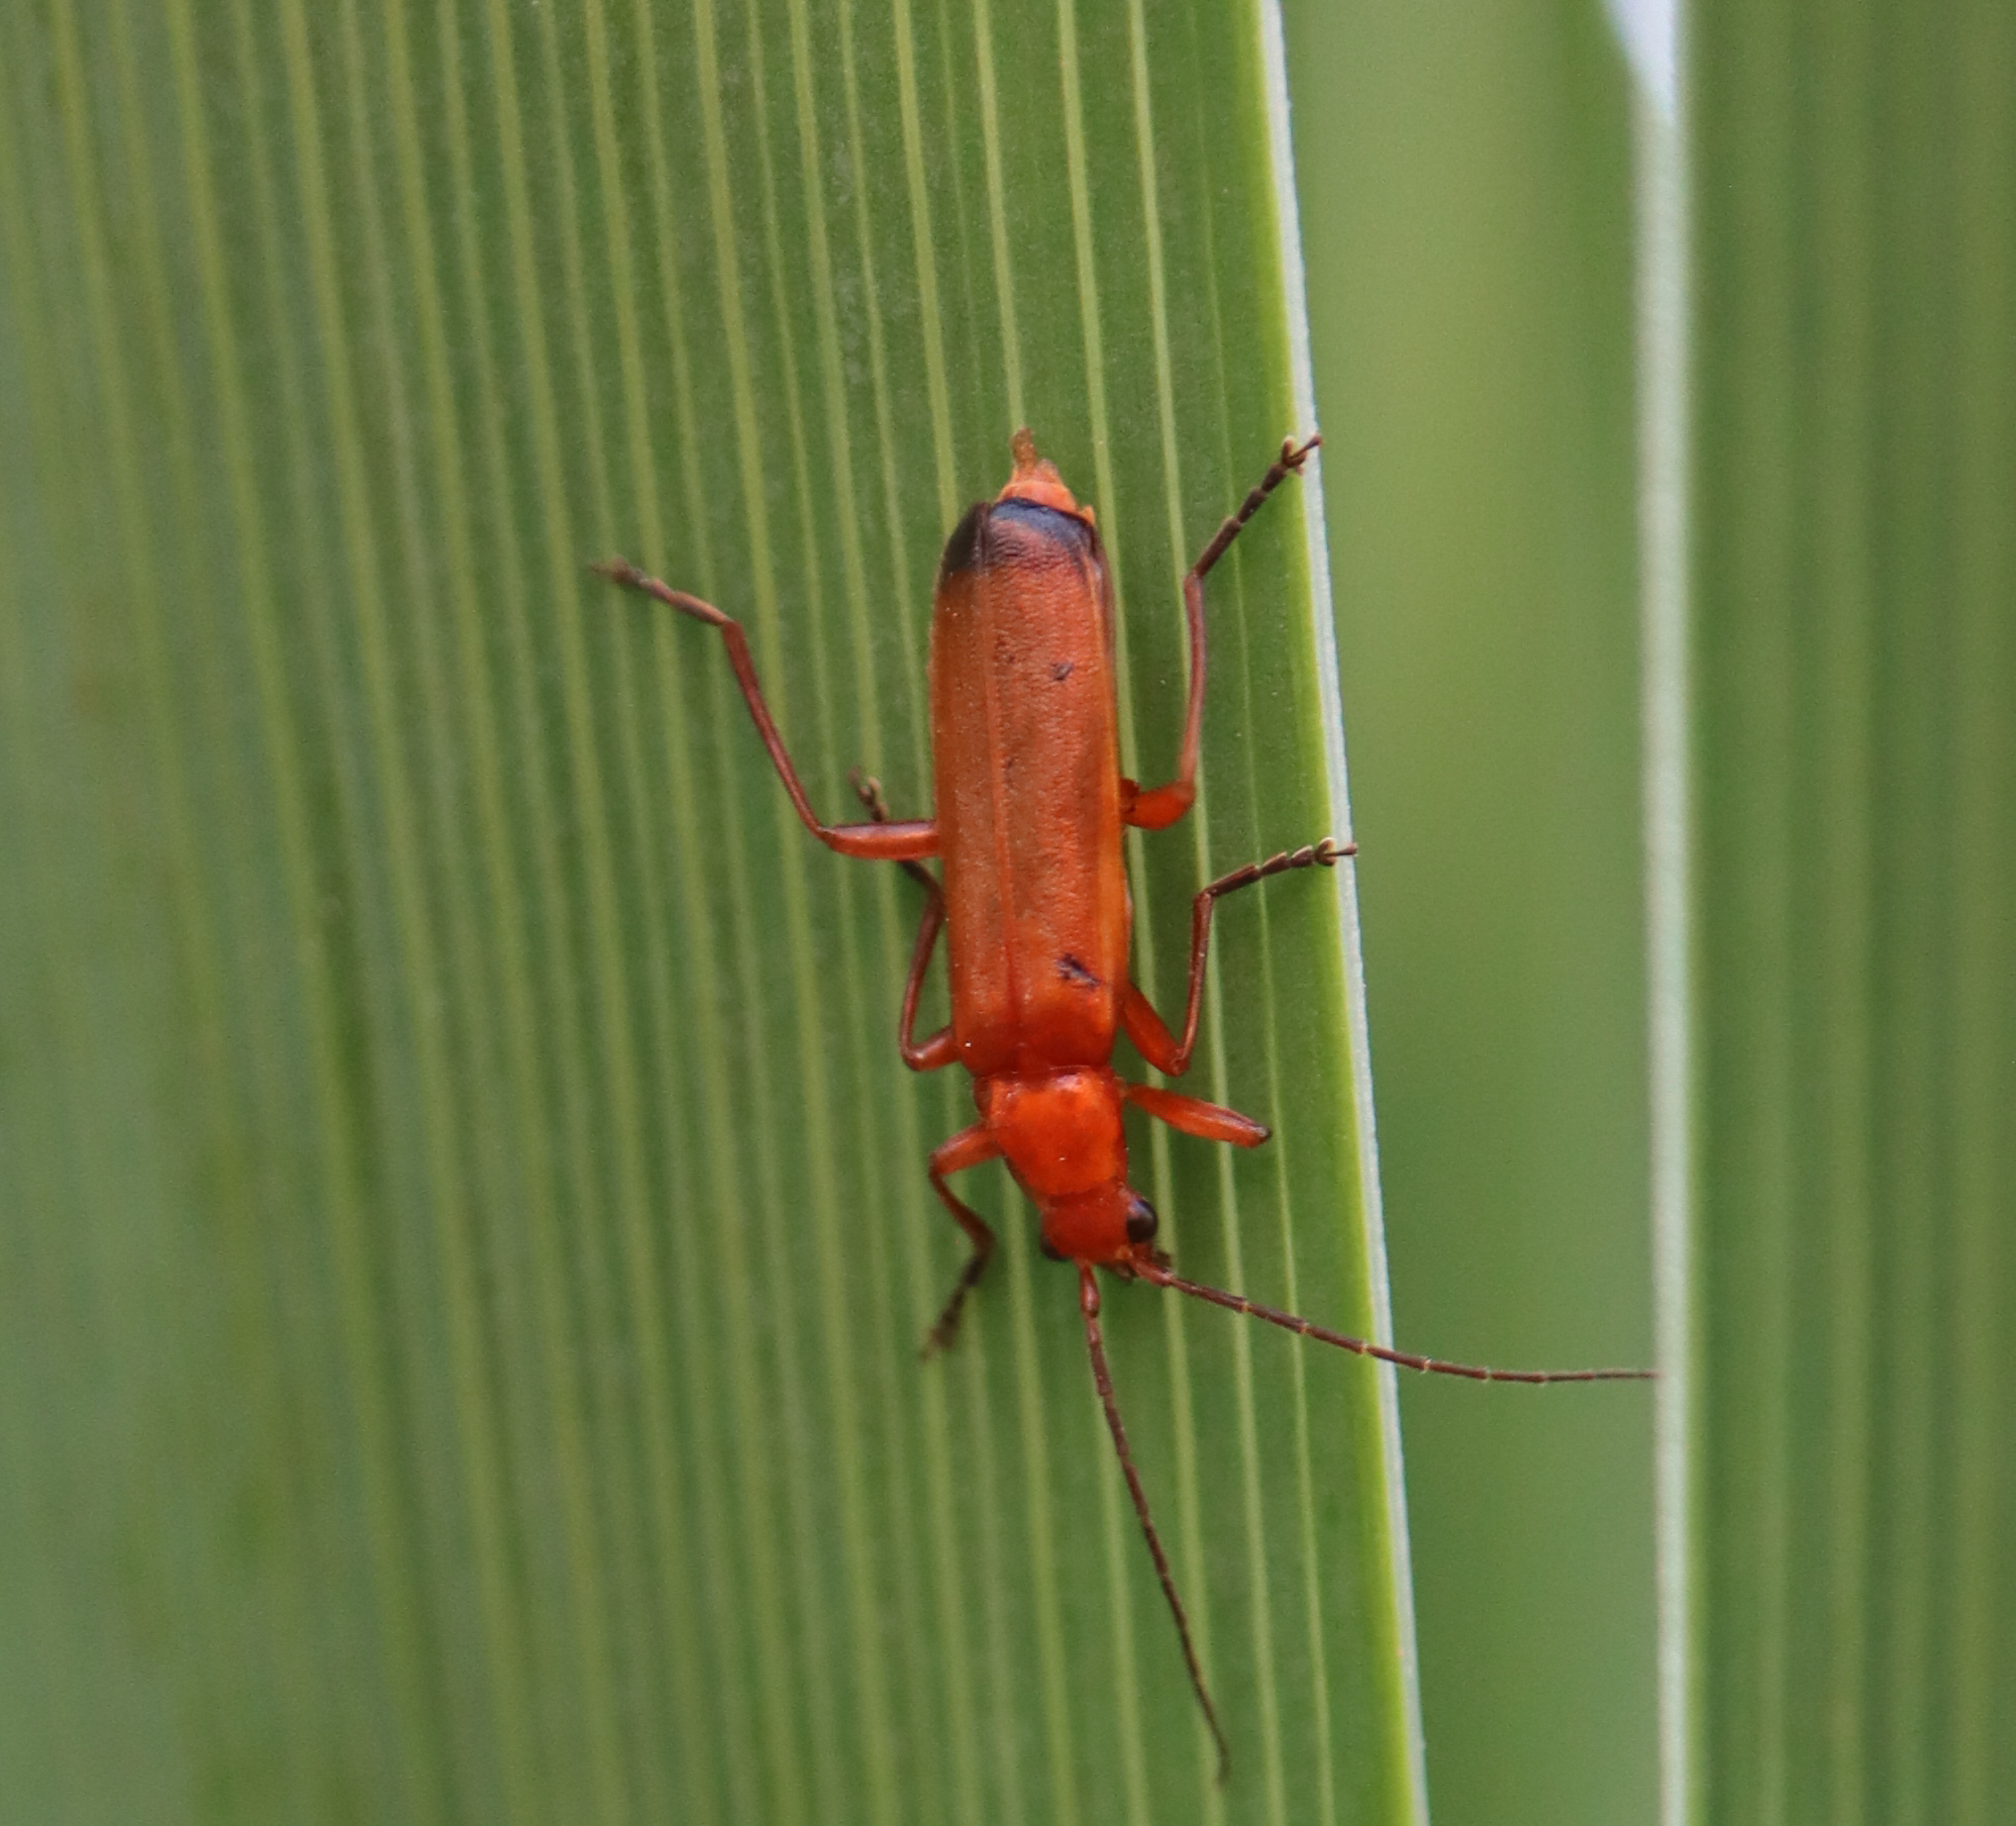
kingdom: Animalia
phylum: Arthropoda
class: Insecta
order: Coleoptera
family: Cantharidae
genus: Rhagonycha
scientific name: Rhagonycha fulva
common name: Common red soldier beetle
